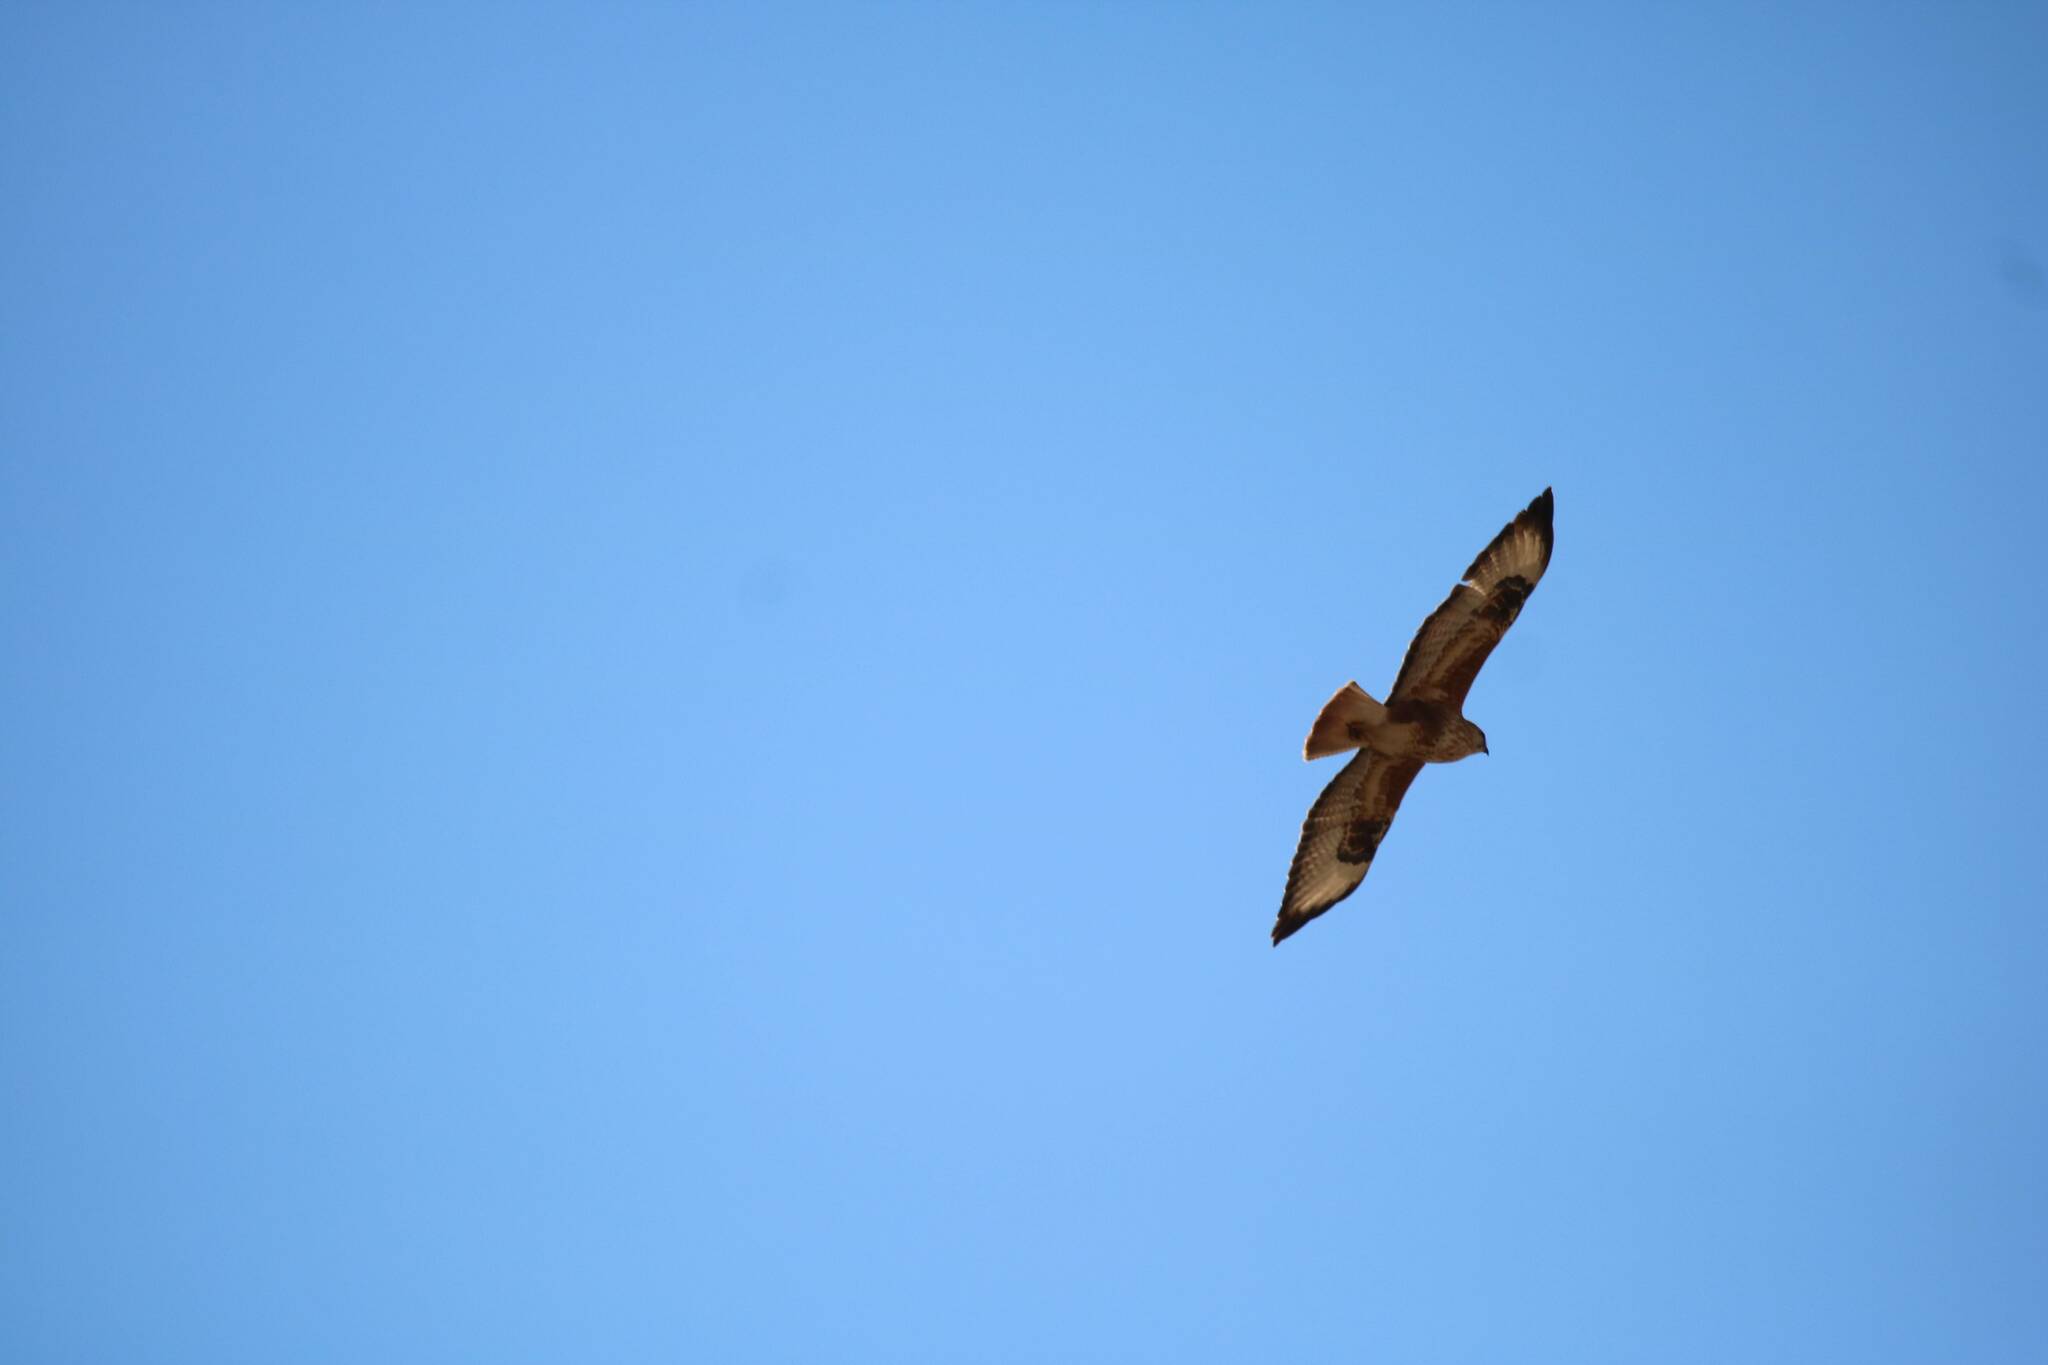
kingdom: Animalia
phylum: Chordata
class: Aves
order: Accipitriformes
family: Accipitridae
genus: Buteo
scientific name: Buteo rufinus
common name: Long-legged buzzard
